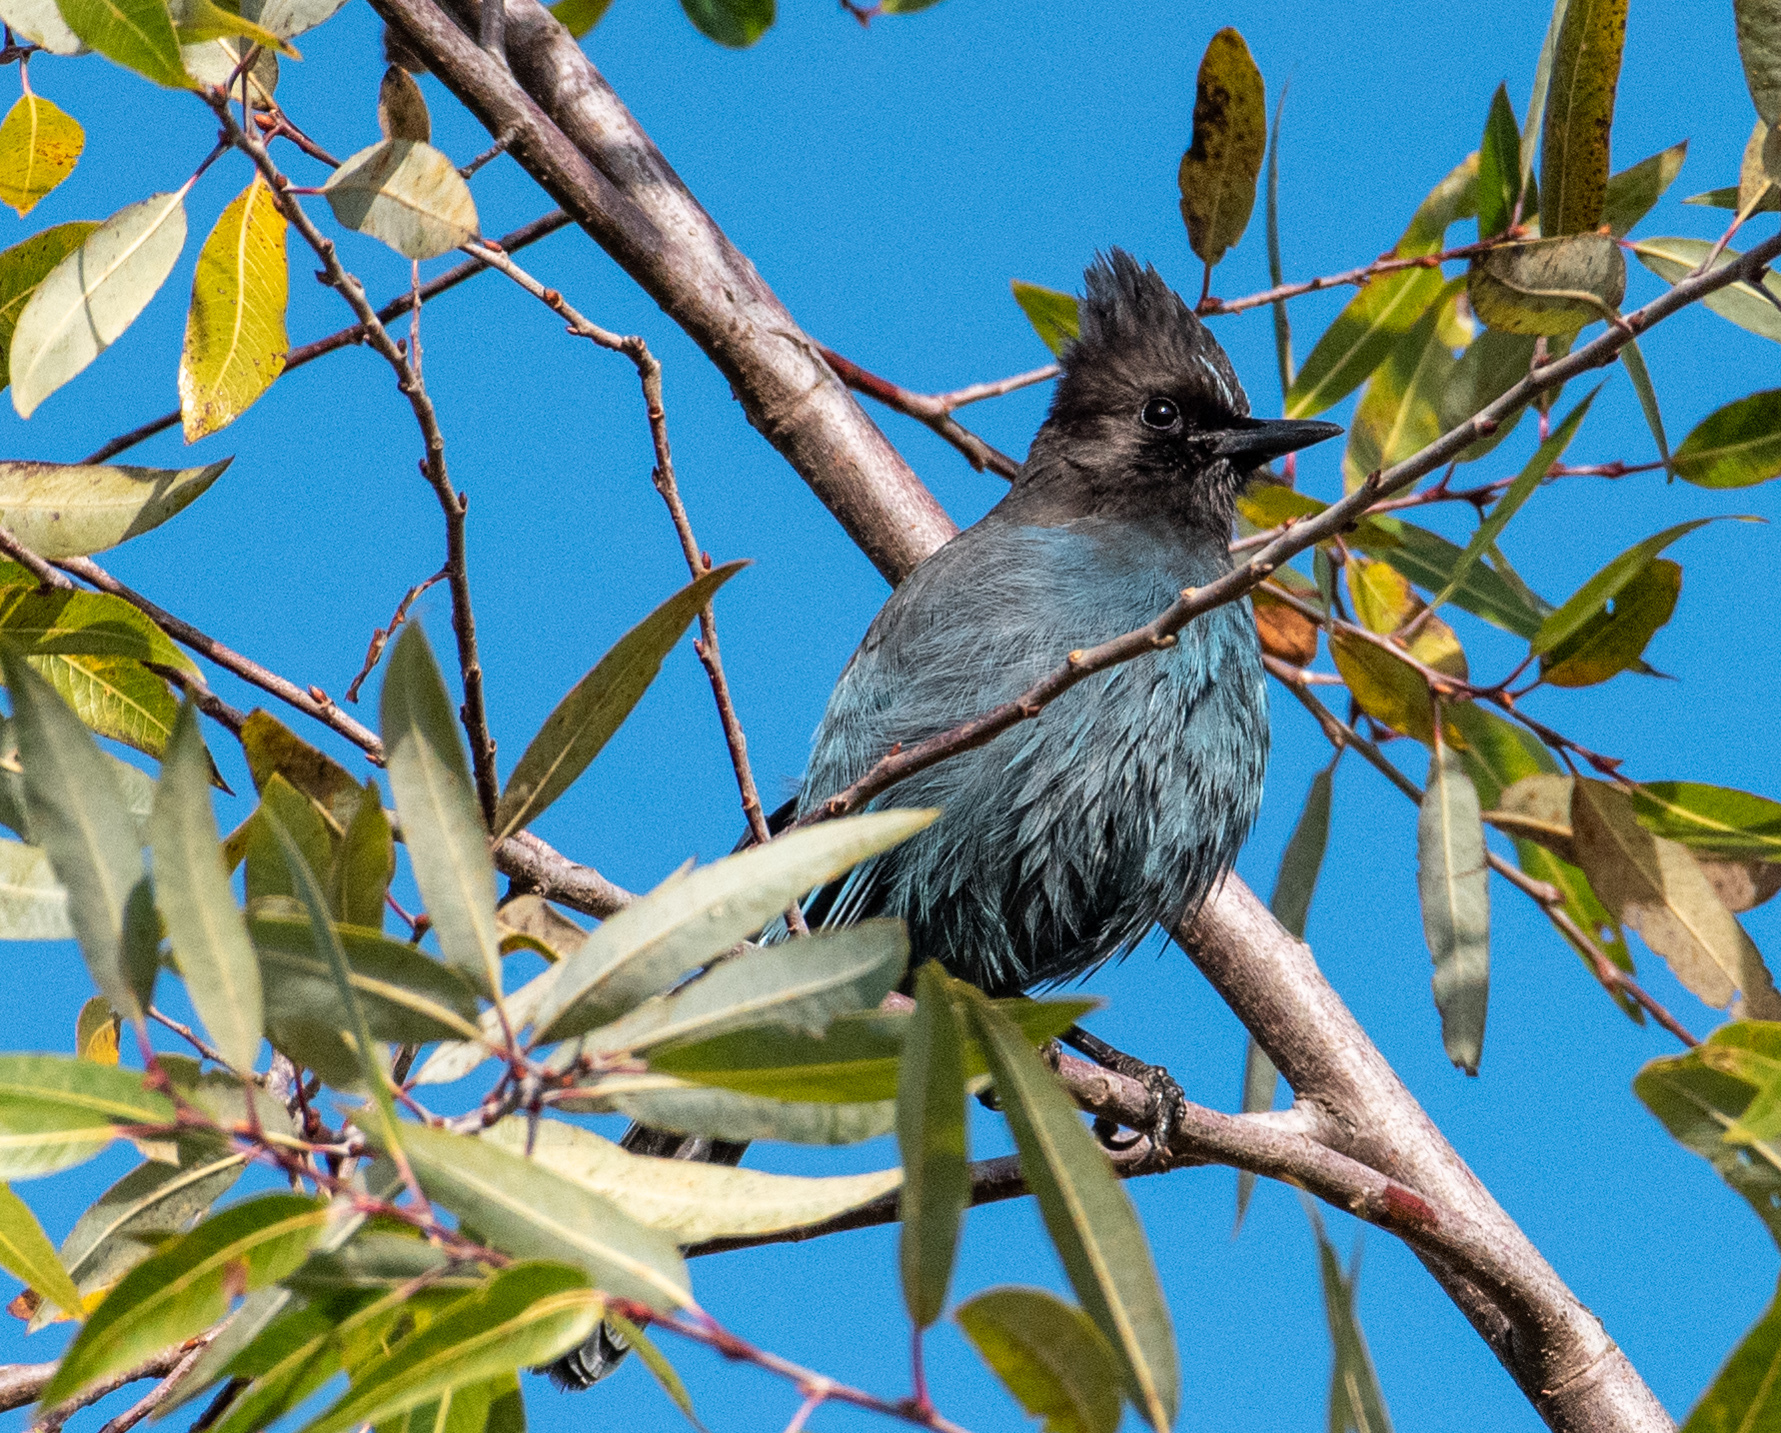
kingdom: Animalia
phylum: Chordata
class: Aves
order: Passeriformes
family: Corvidae
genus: Cyanocitta
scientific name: Cyanocitta stelleri
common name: Steller's jay
